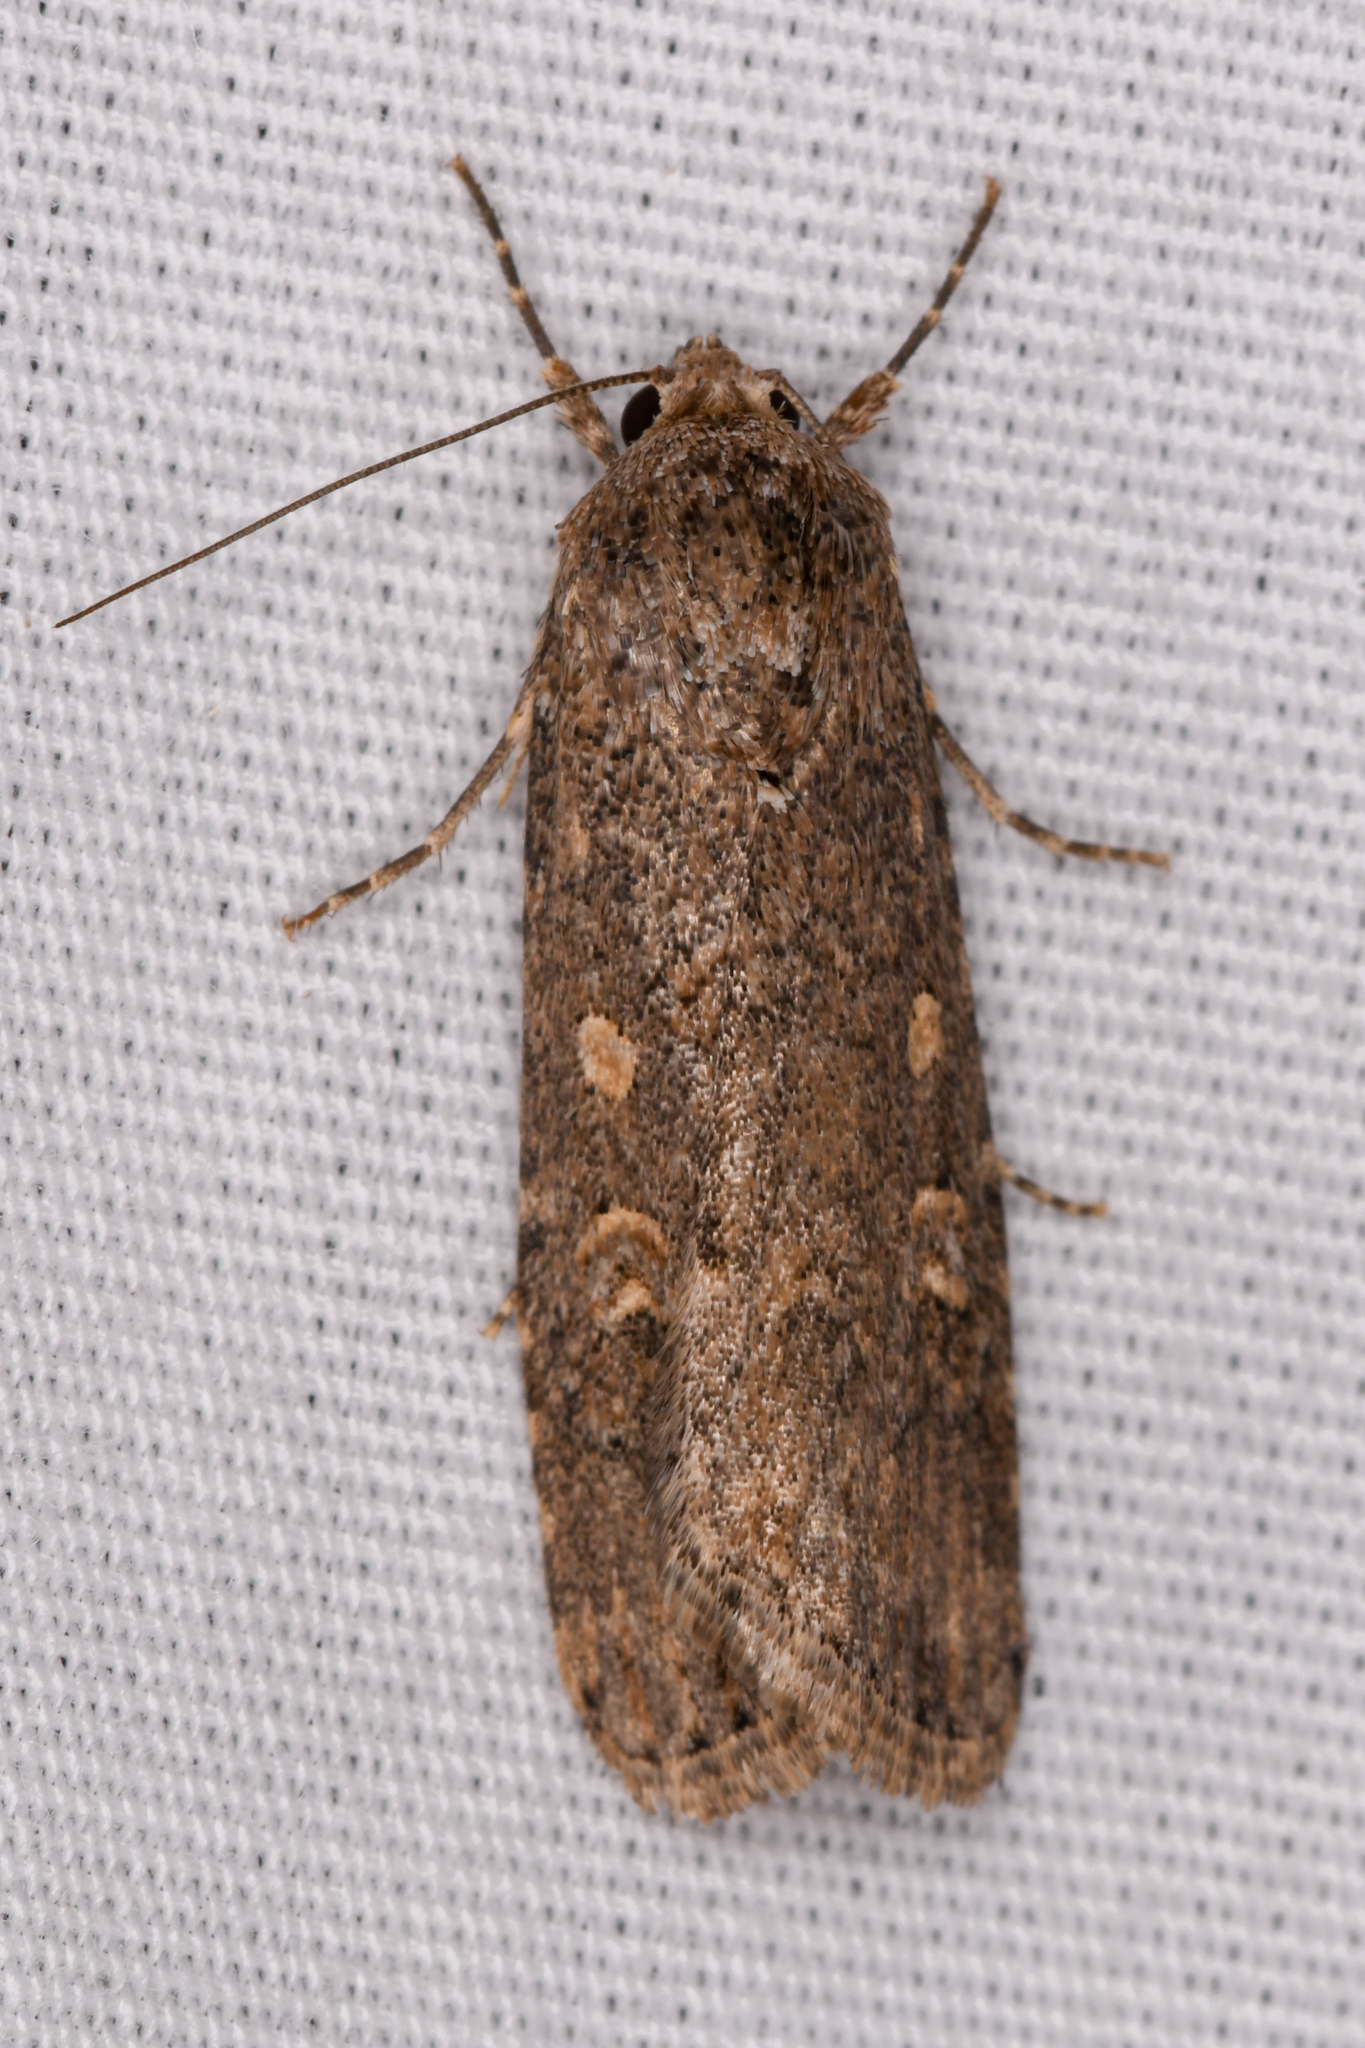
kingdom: Animalia
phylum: Arthropoda
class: Insecta
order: Lepidoptera
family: Noctuidae
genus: Spodoptera
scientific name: Spodoptera exigua
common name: Beet armyworm
